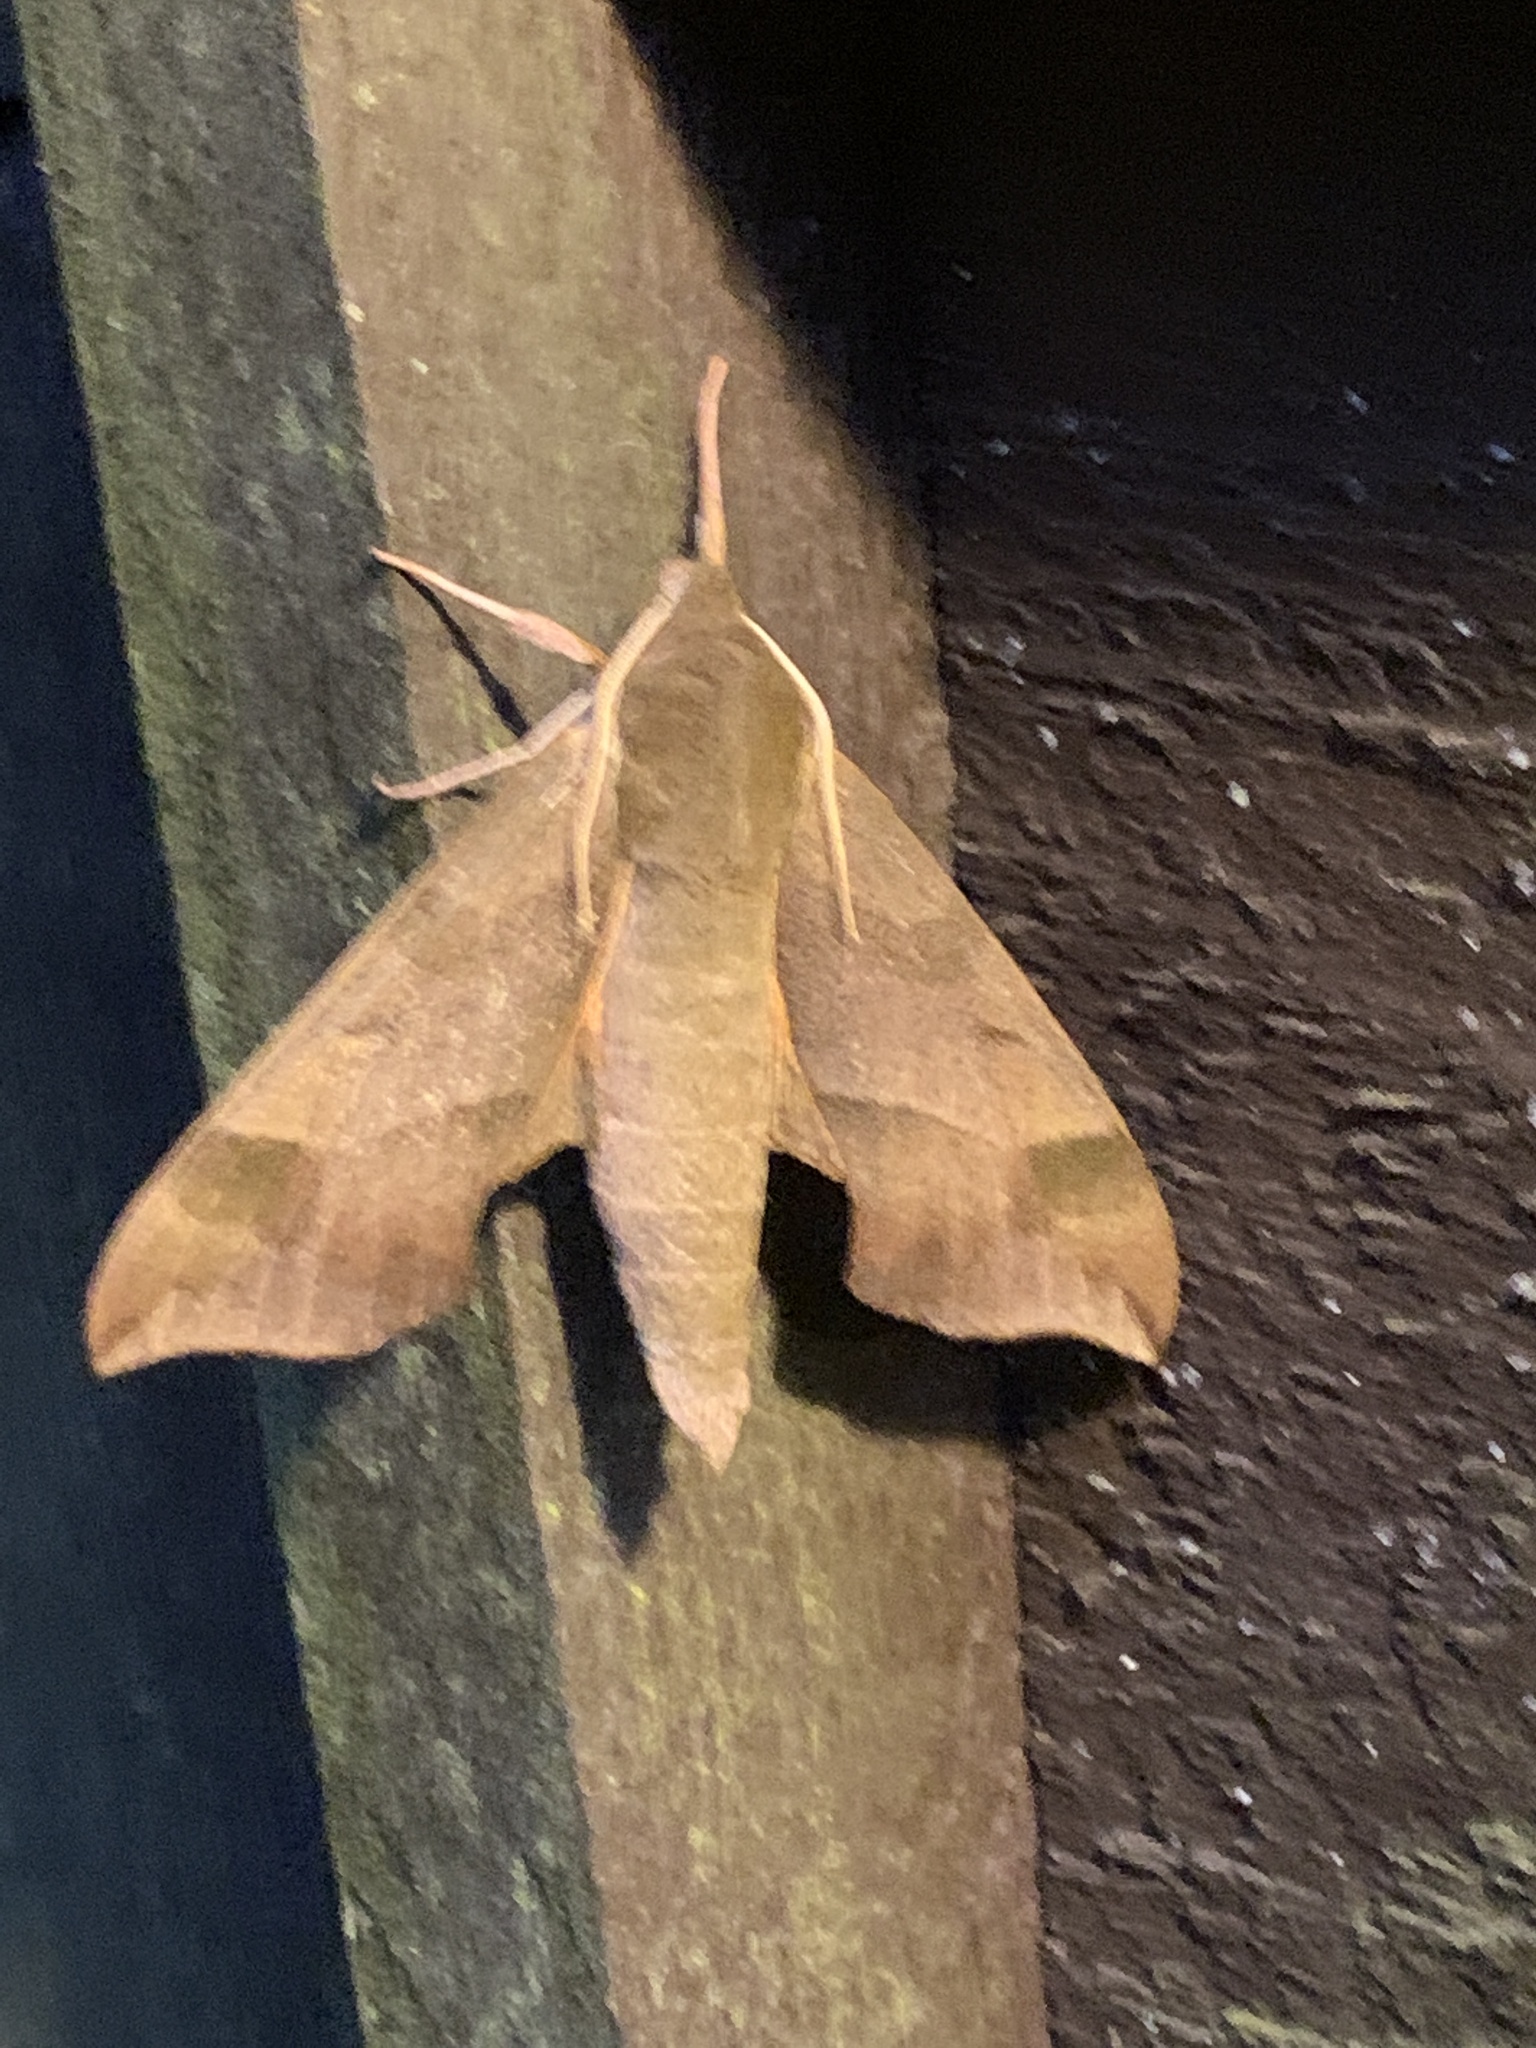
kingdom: Animalia
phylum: Arthropoda
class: Insecta
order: Lepidoptera
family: Sphingidae
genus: Darapsa
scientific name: Darapsa myron
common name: Hog sphinx
